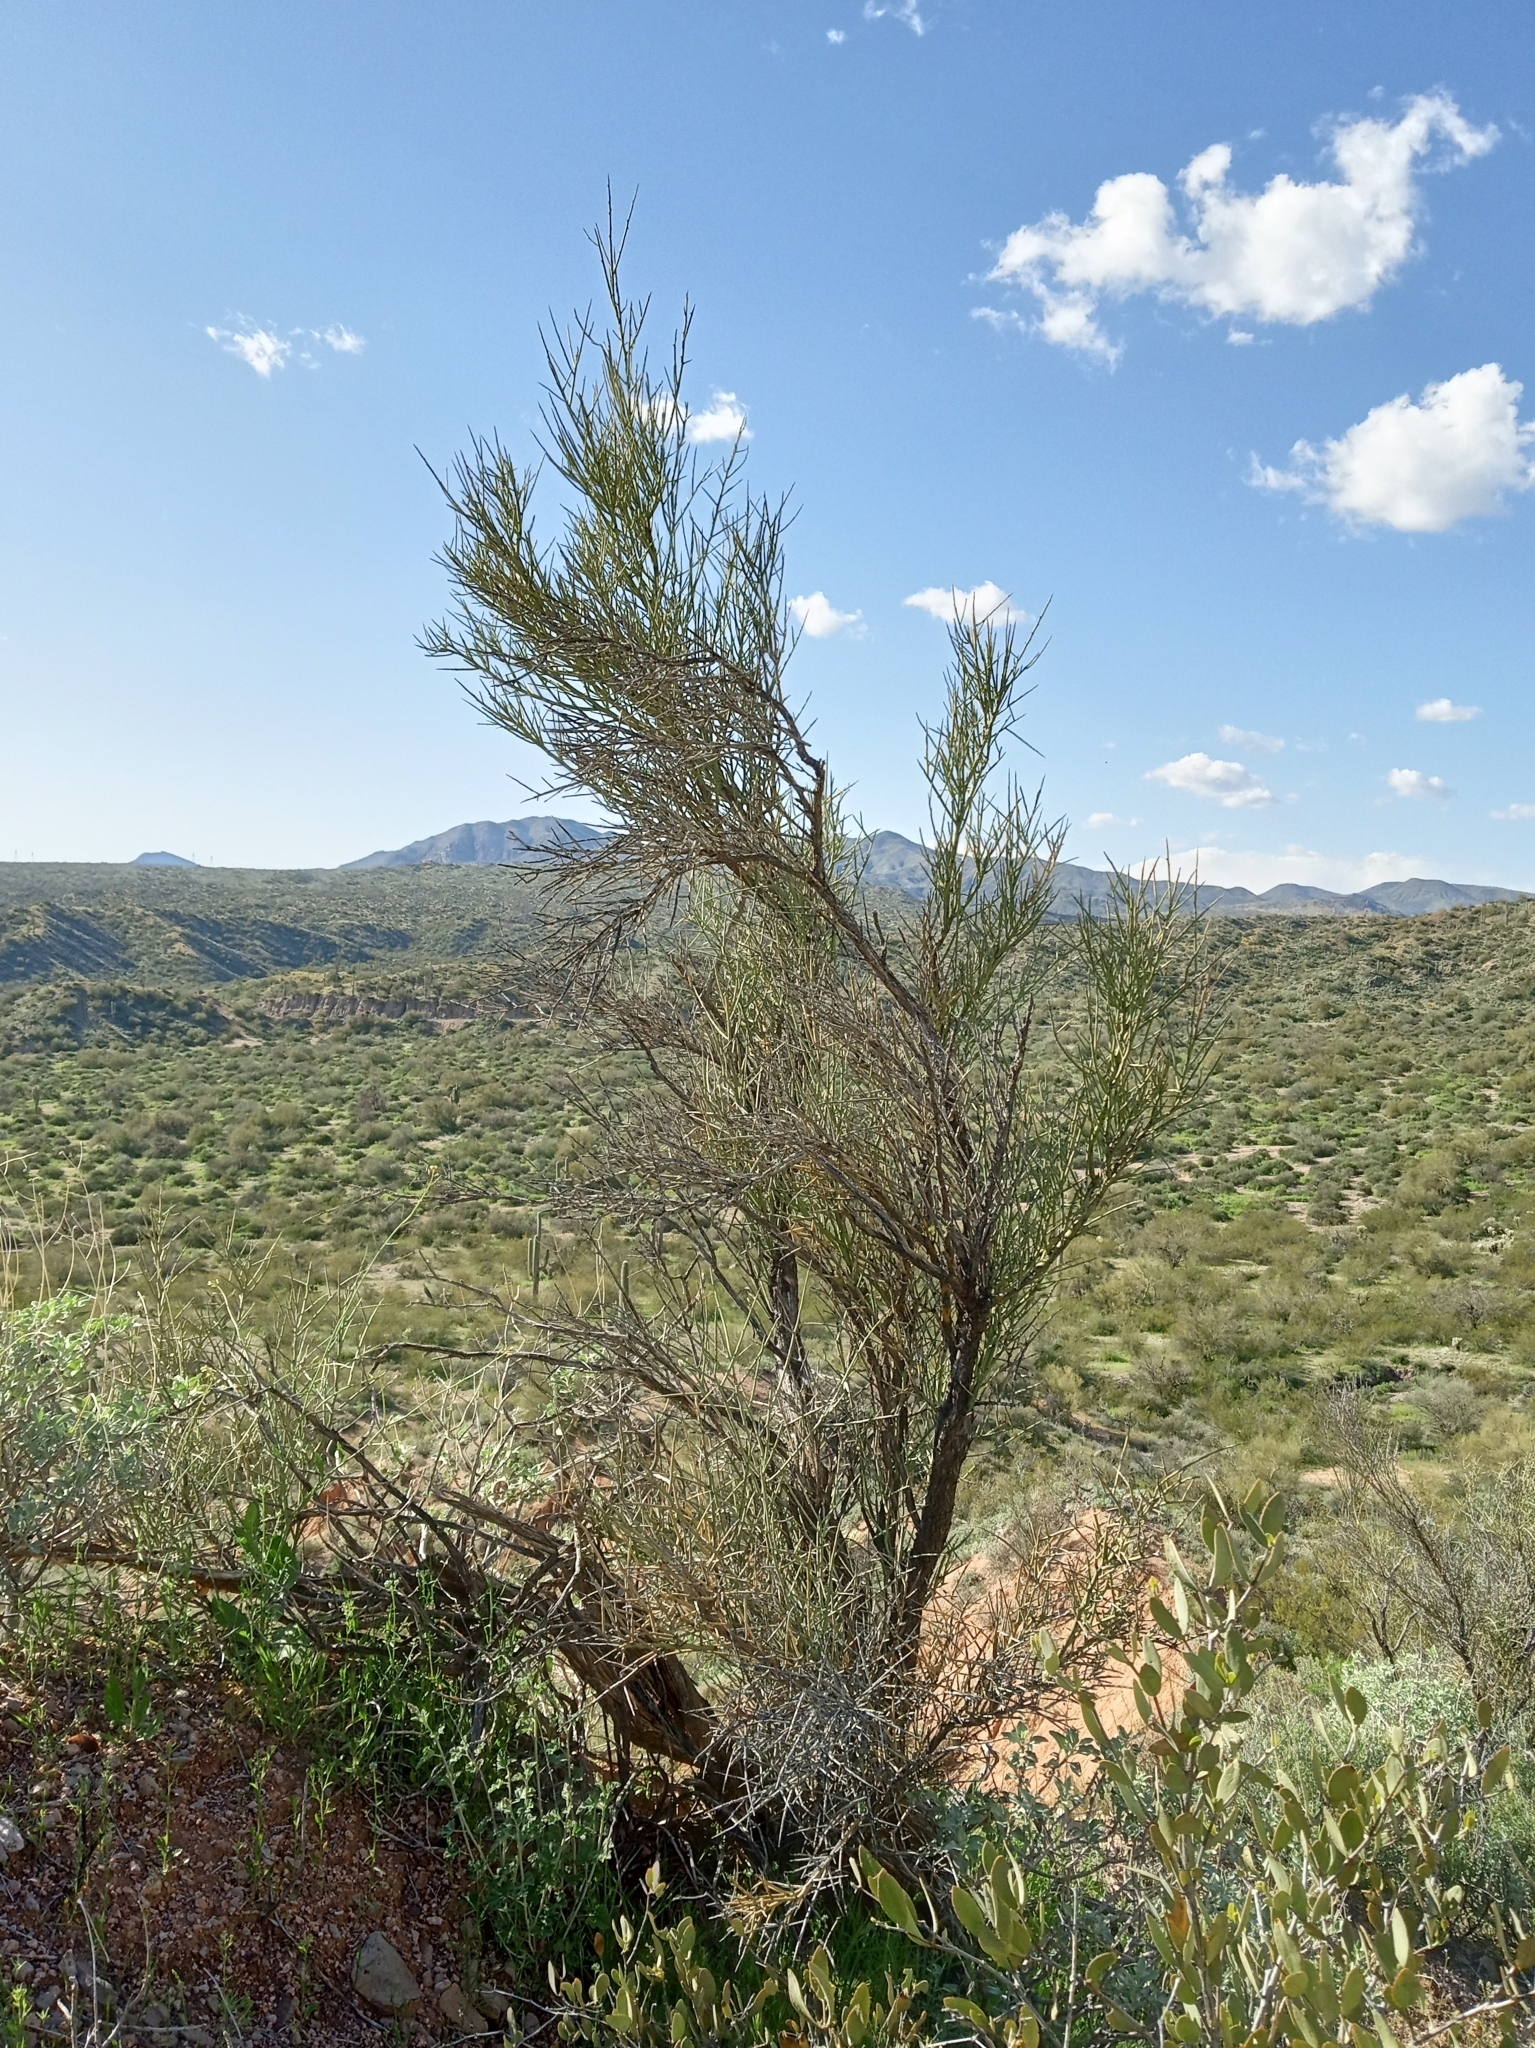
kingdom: Plantae
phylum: Tracheophyta
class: Magnoliopsida
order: Celastrales
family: Celastraceae
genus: Canotia
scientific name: Canotia holacantha
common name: Crucifixion thorns
